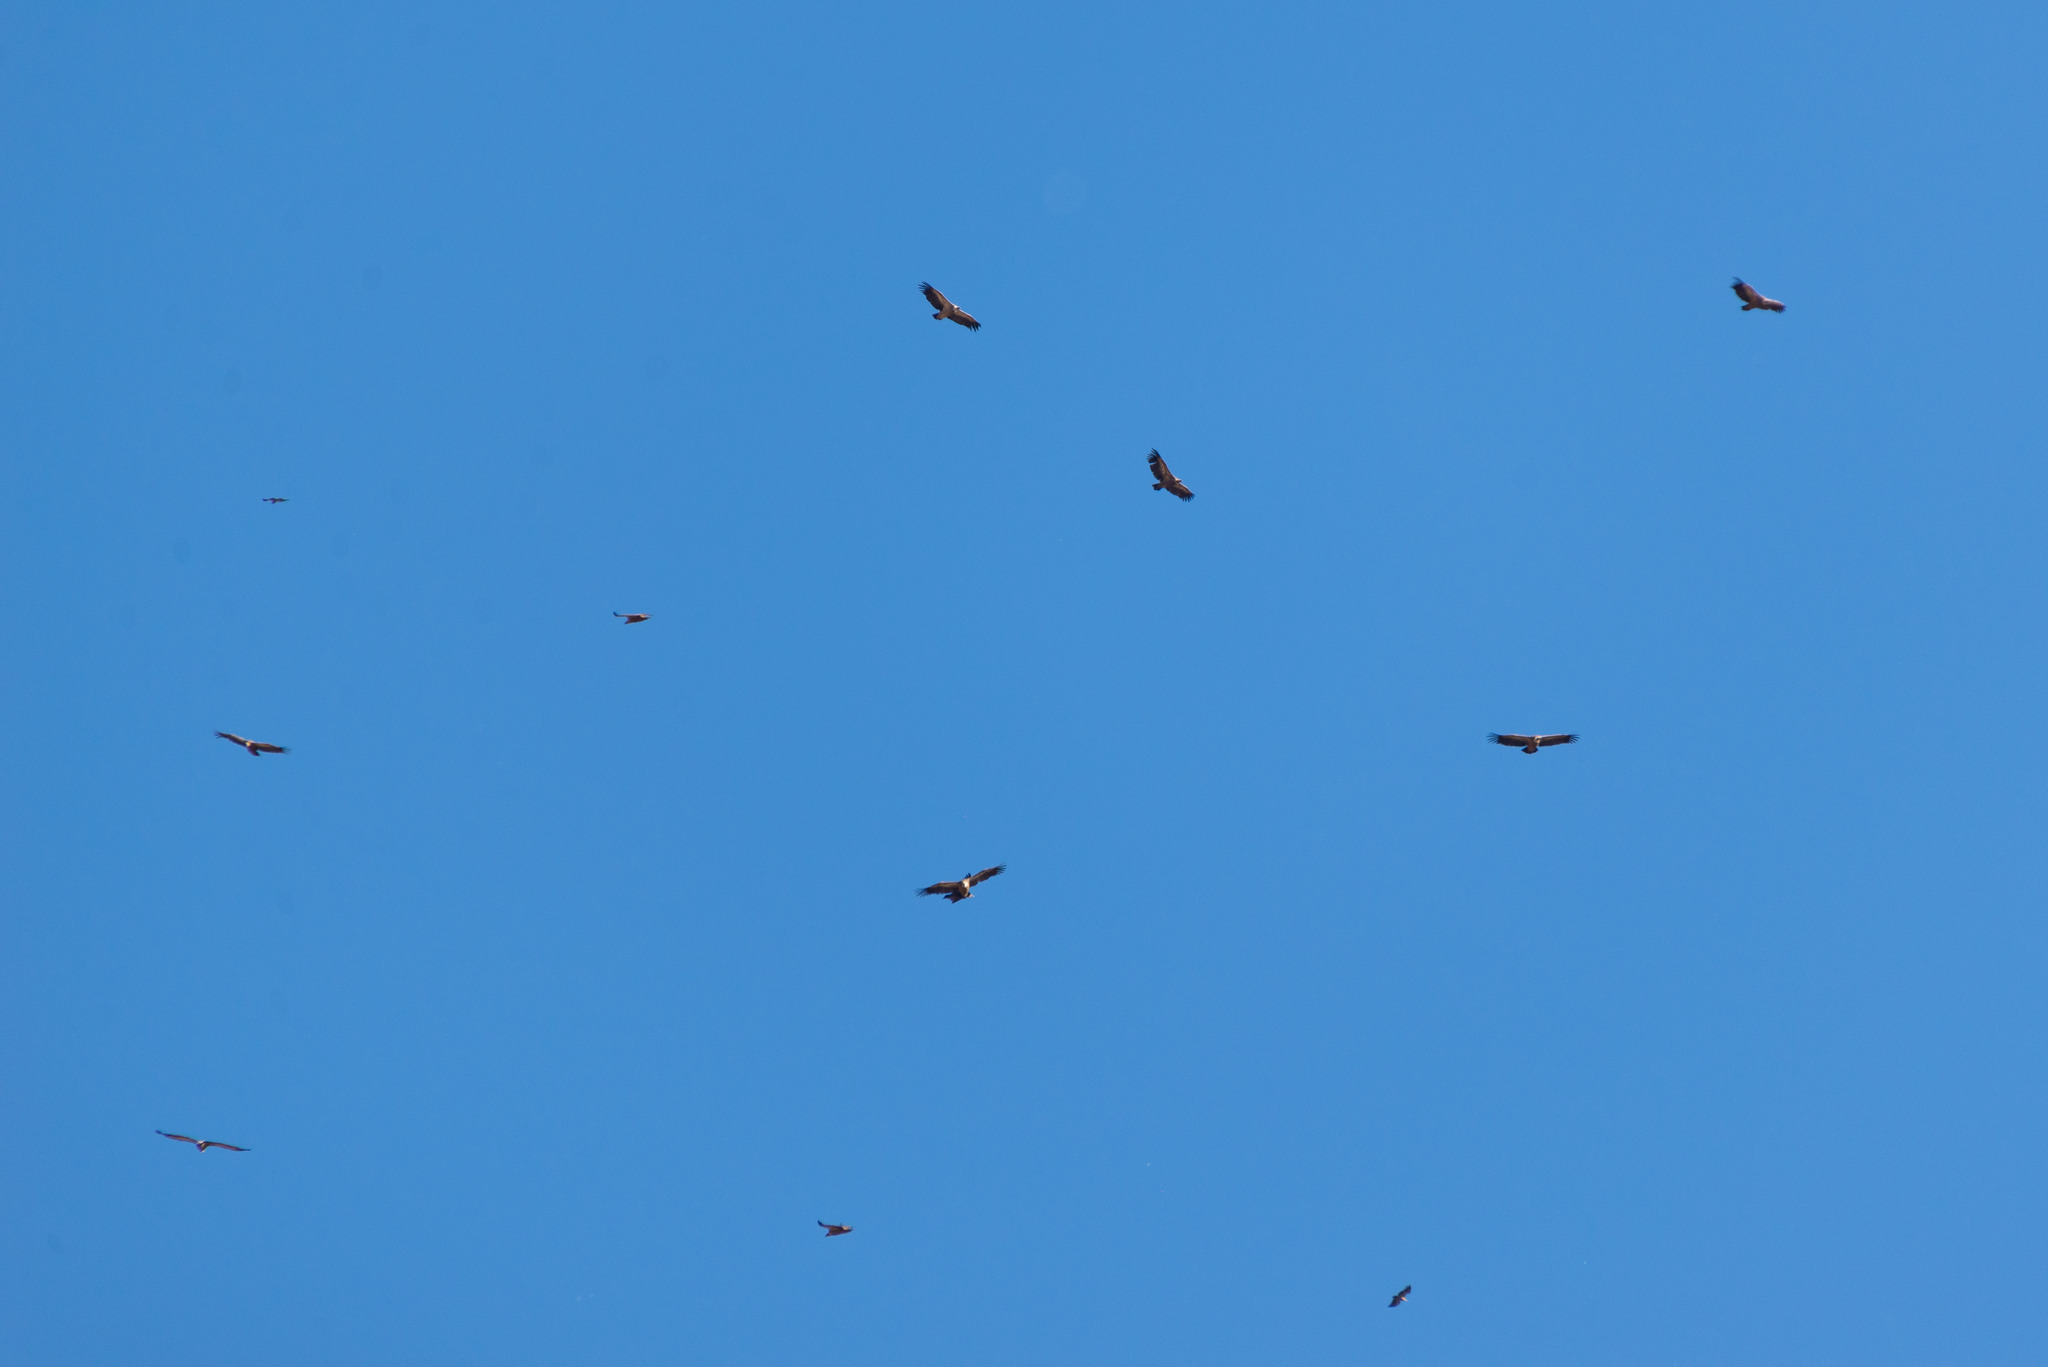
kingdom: Animalia
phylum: Chordata
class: Aves
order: Accipitriformes
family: Accipitridae
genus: Gyps
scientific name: Gyps fulvus
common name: Griffon vulture
